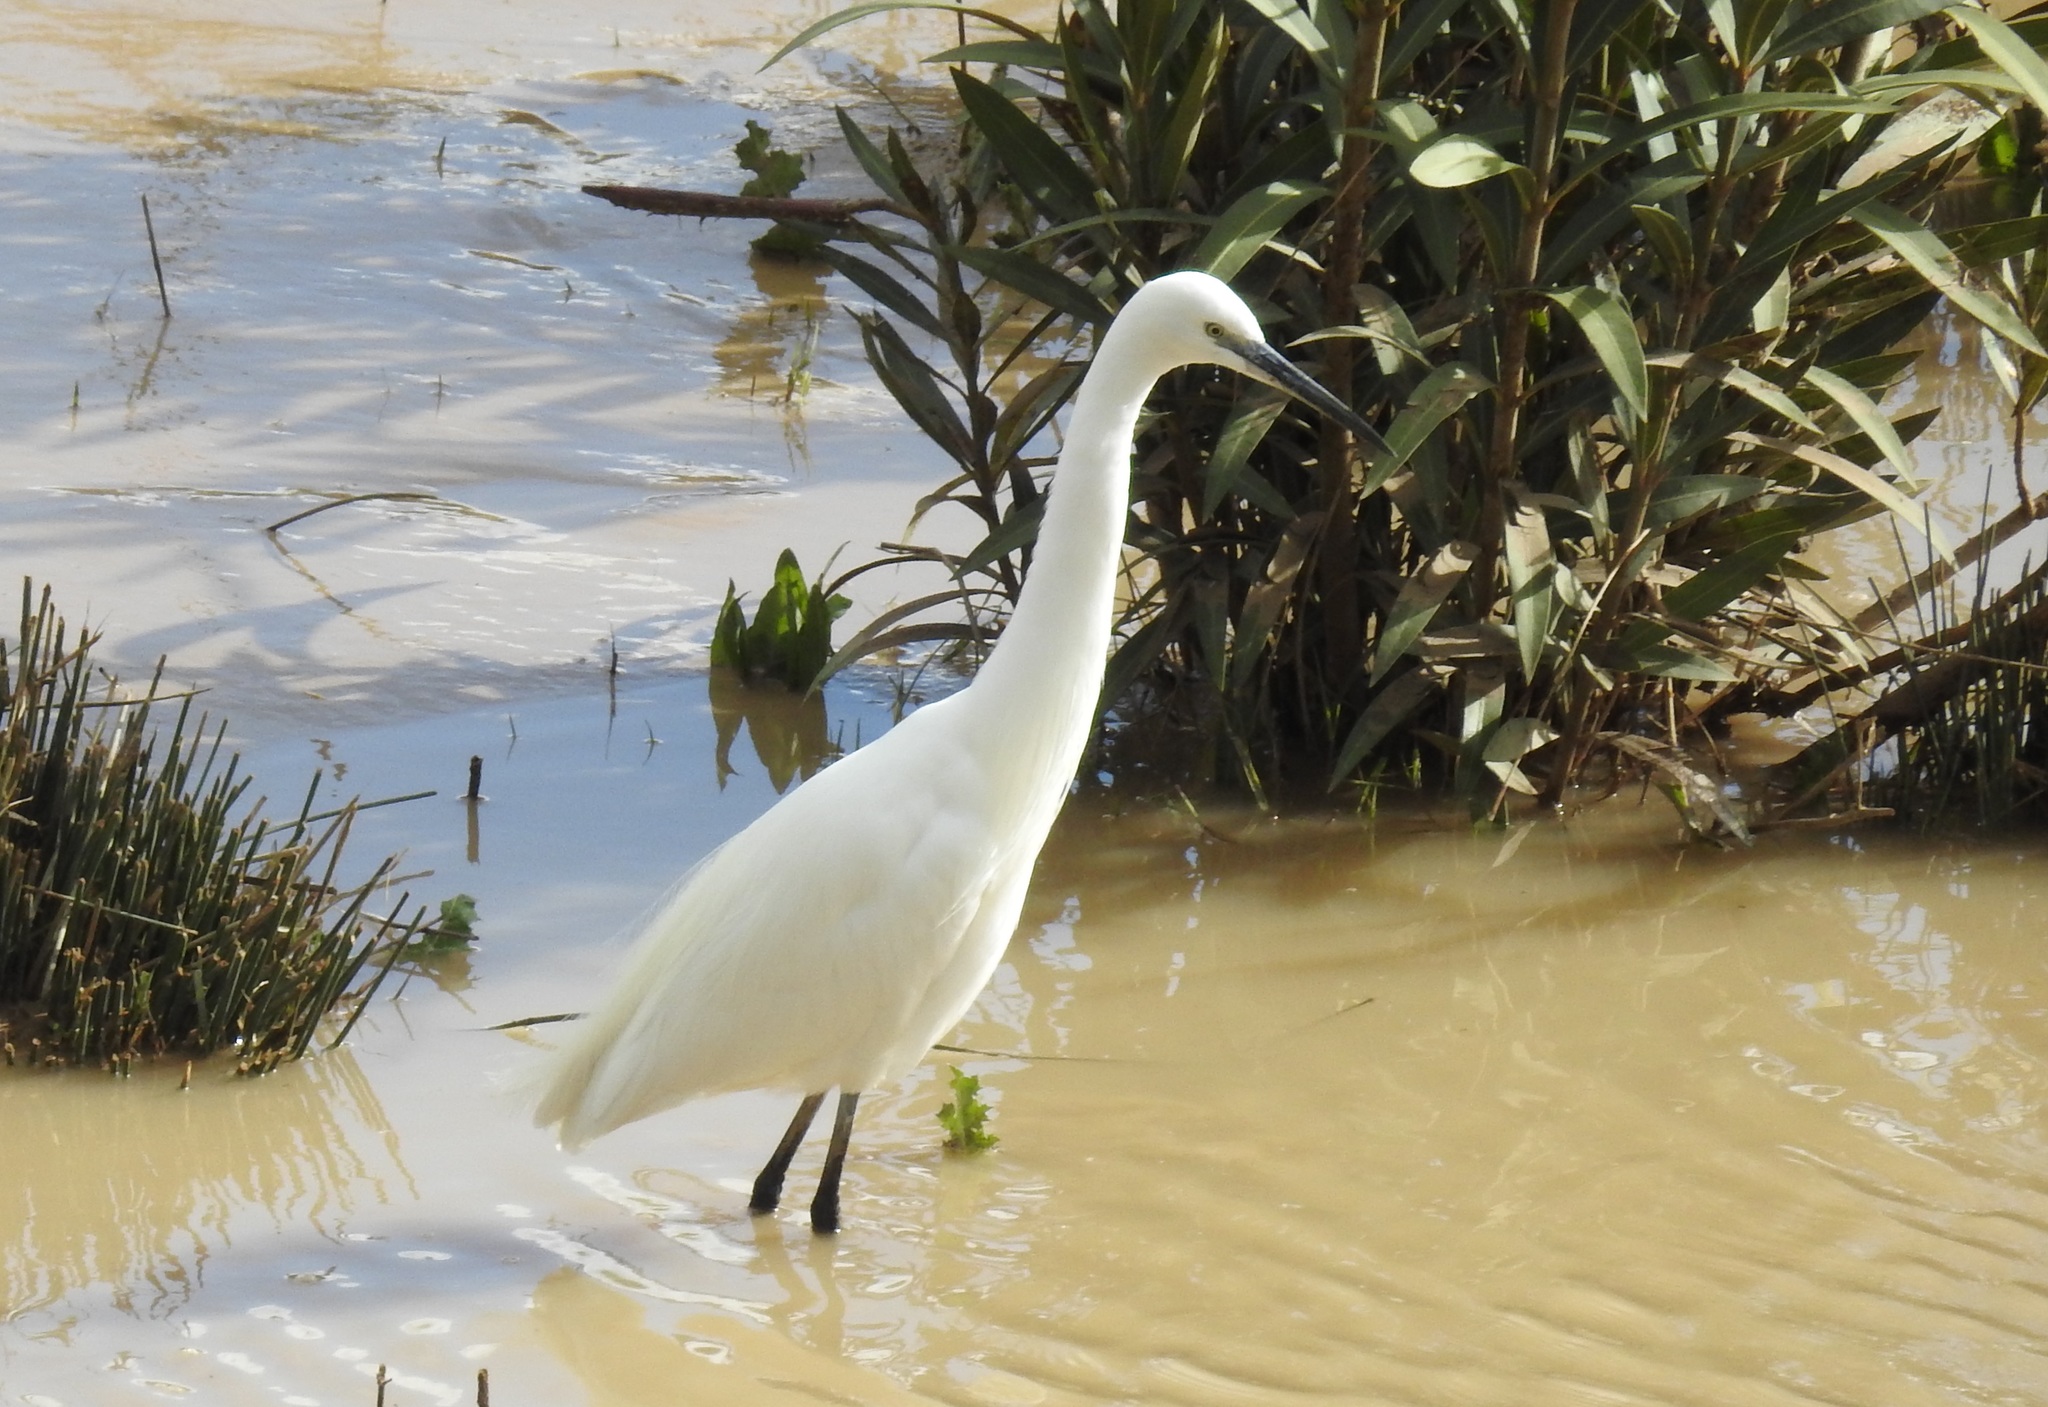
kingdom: Animalia
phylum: Chordata
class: Aves
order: Pelecaniformes
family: Ardeidae
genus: Egretta
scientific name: Egretta garzetta
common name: Little egret
